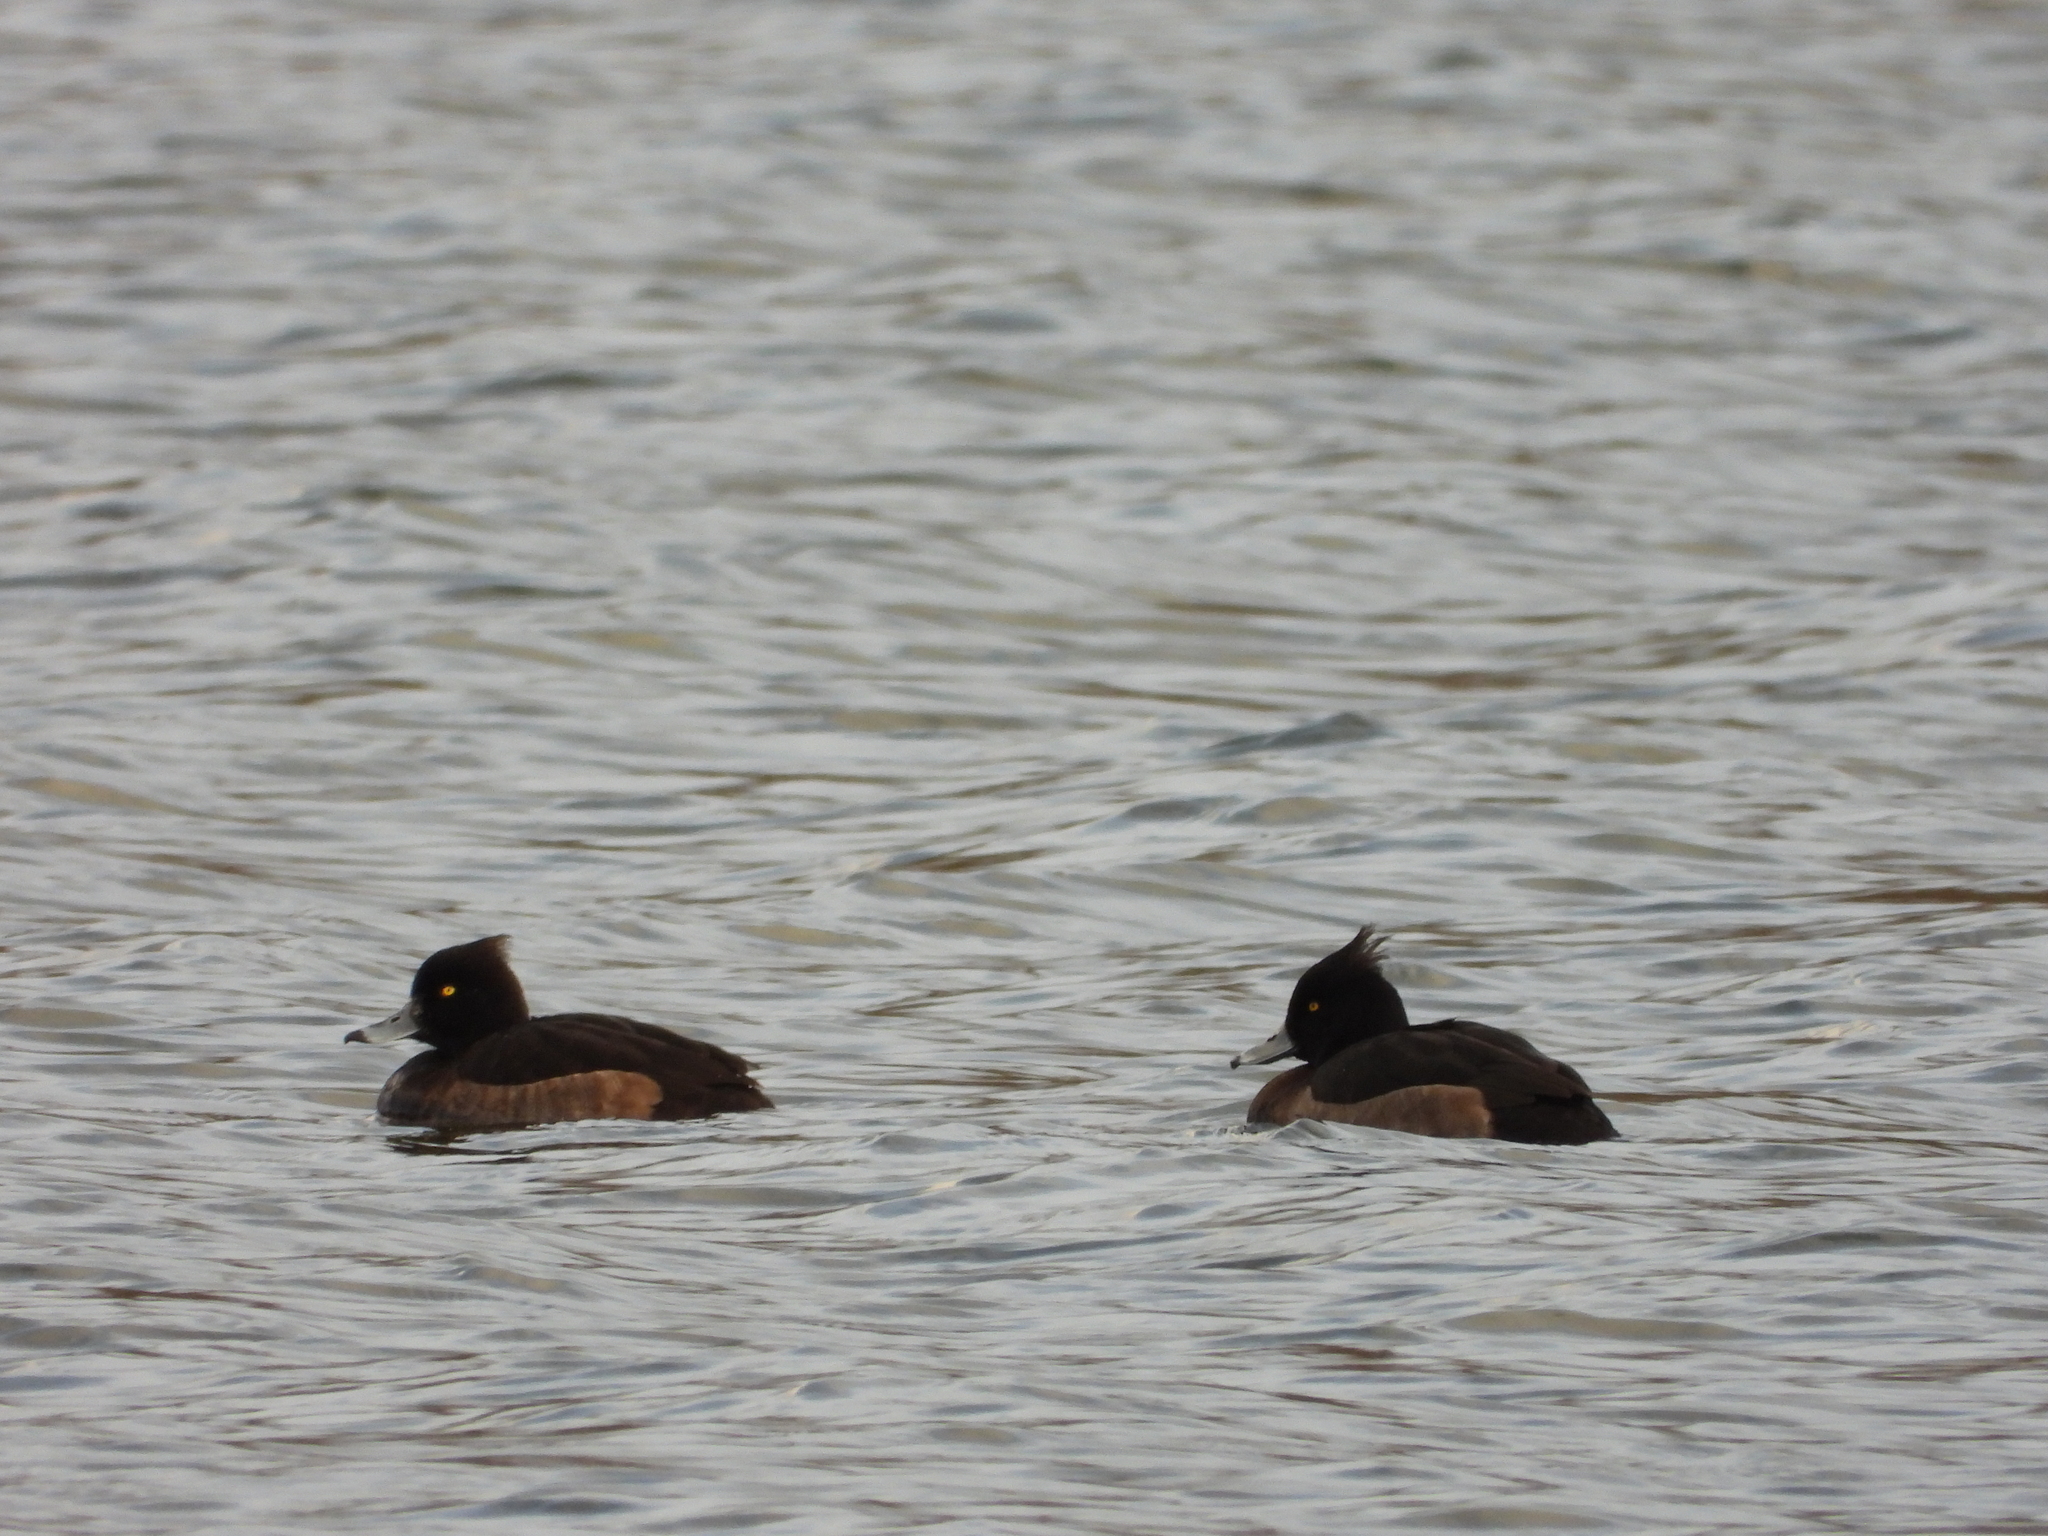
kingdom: Animalia
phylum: Chordata
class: Aves
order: Anseriformes
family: Anatidae
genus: Aythya
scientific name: Aythya fuligula
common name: Tufted duck
